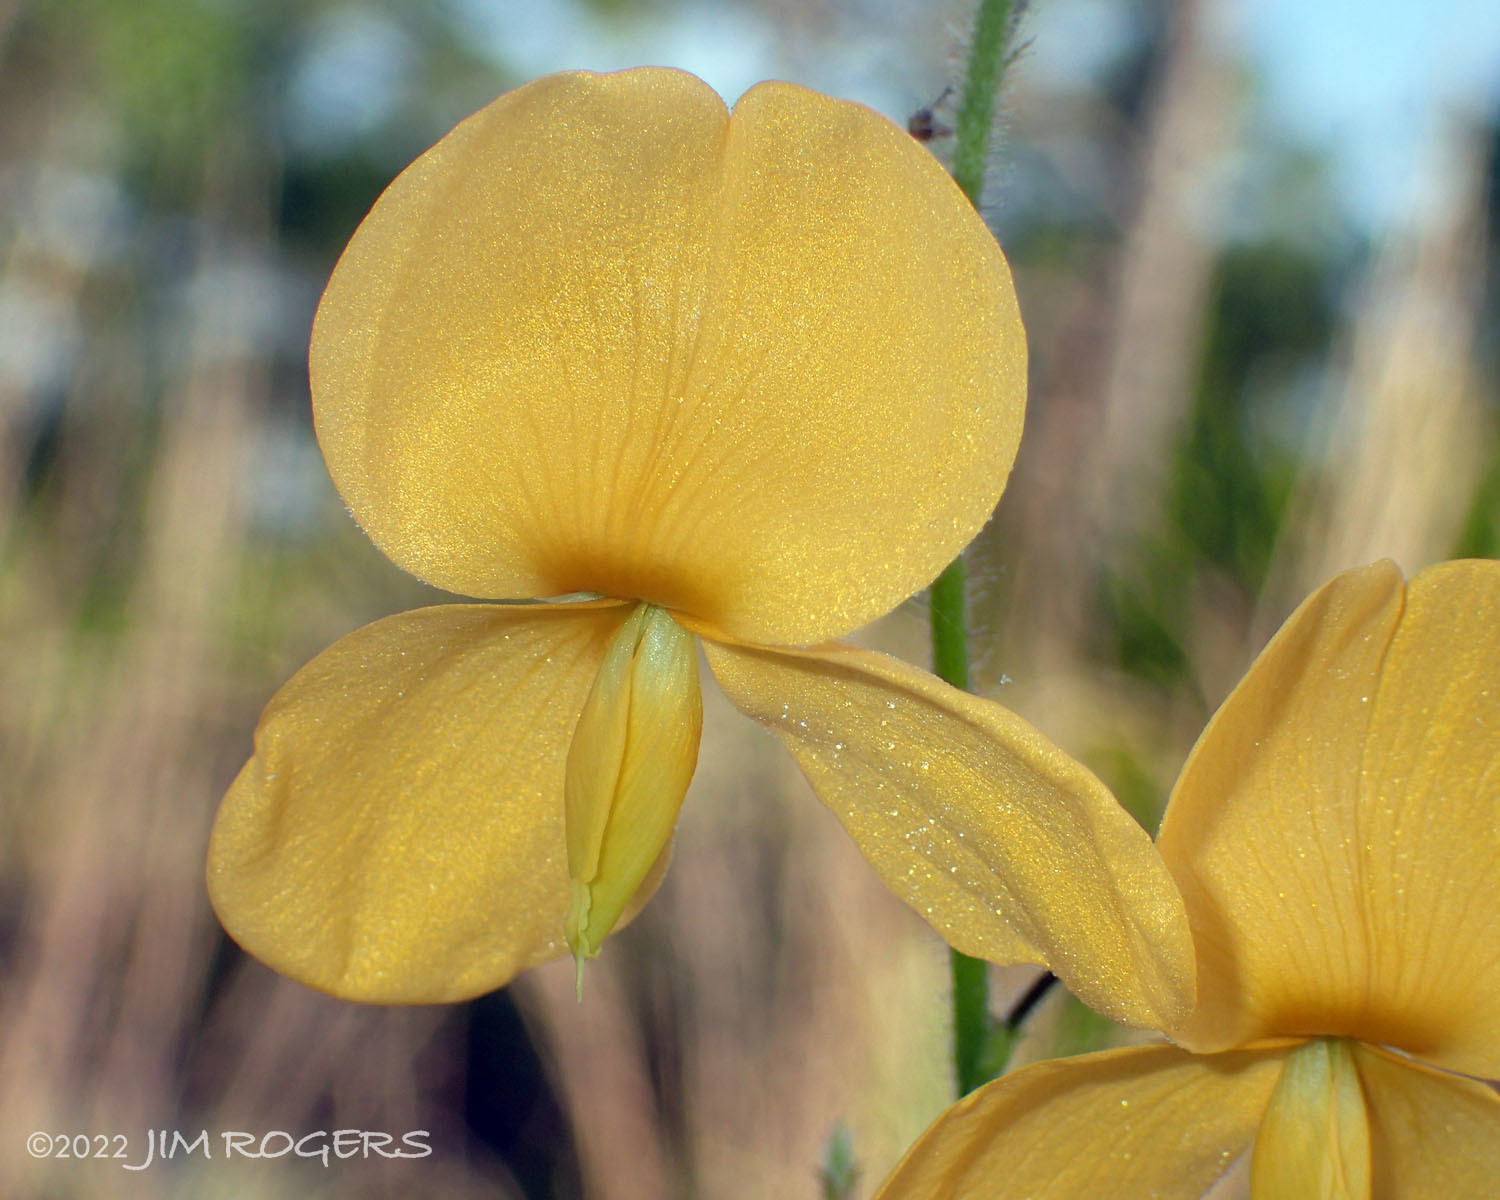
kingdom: Plantae
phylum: Tracheophyta
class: Magnoliopsida
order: Fabales
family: Fabaceae
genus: Chapmannia
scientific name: Chapmannia floridana
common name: Alicia
